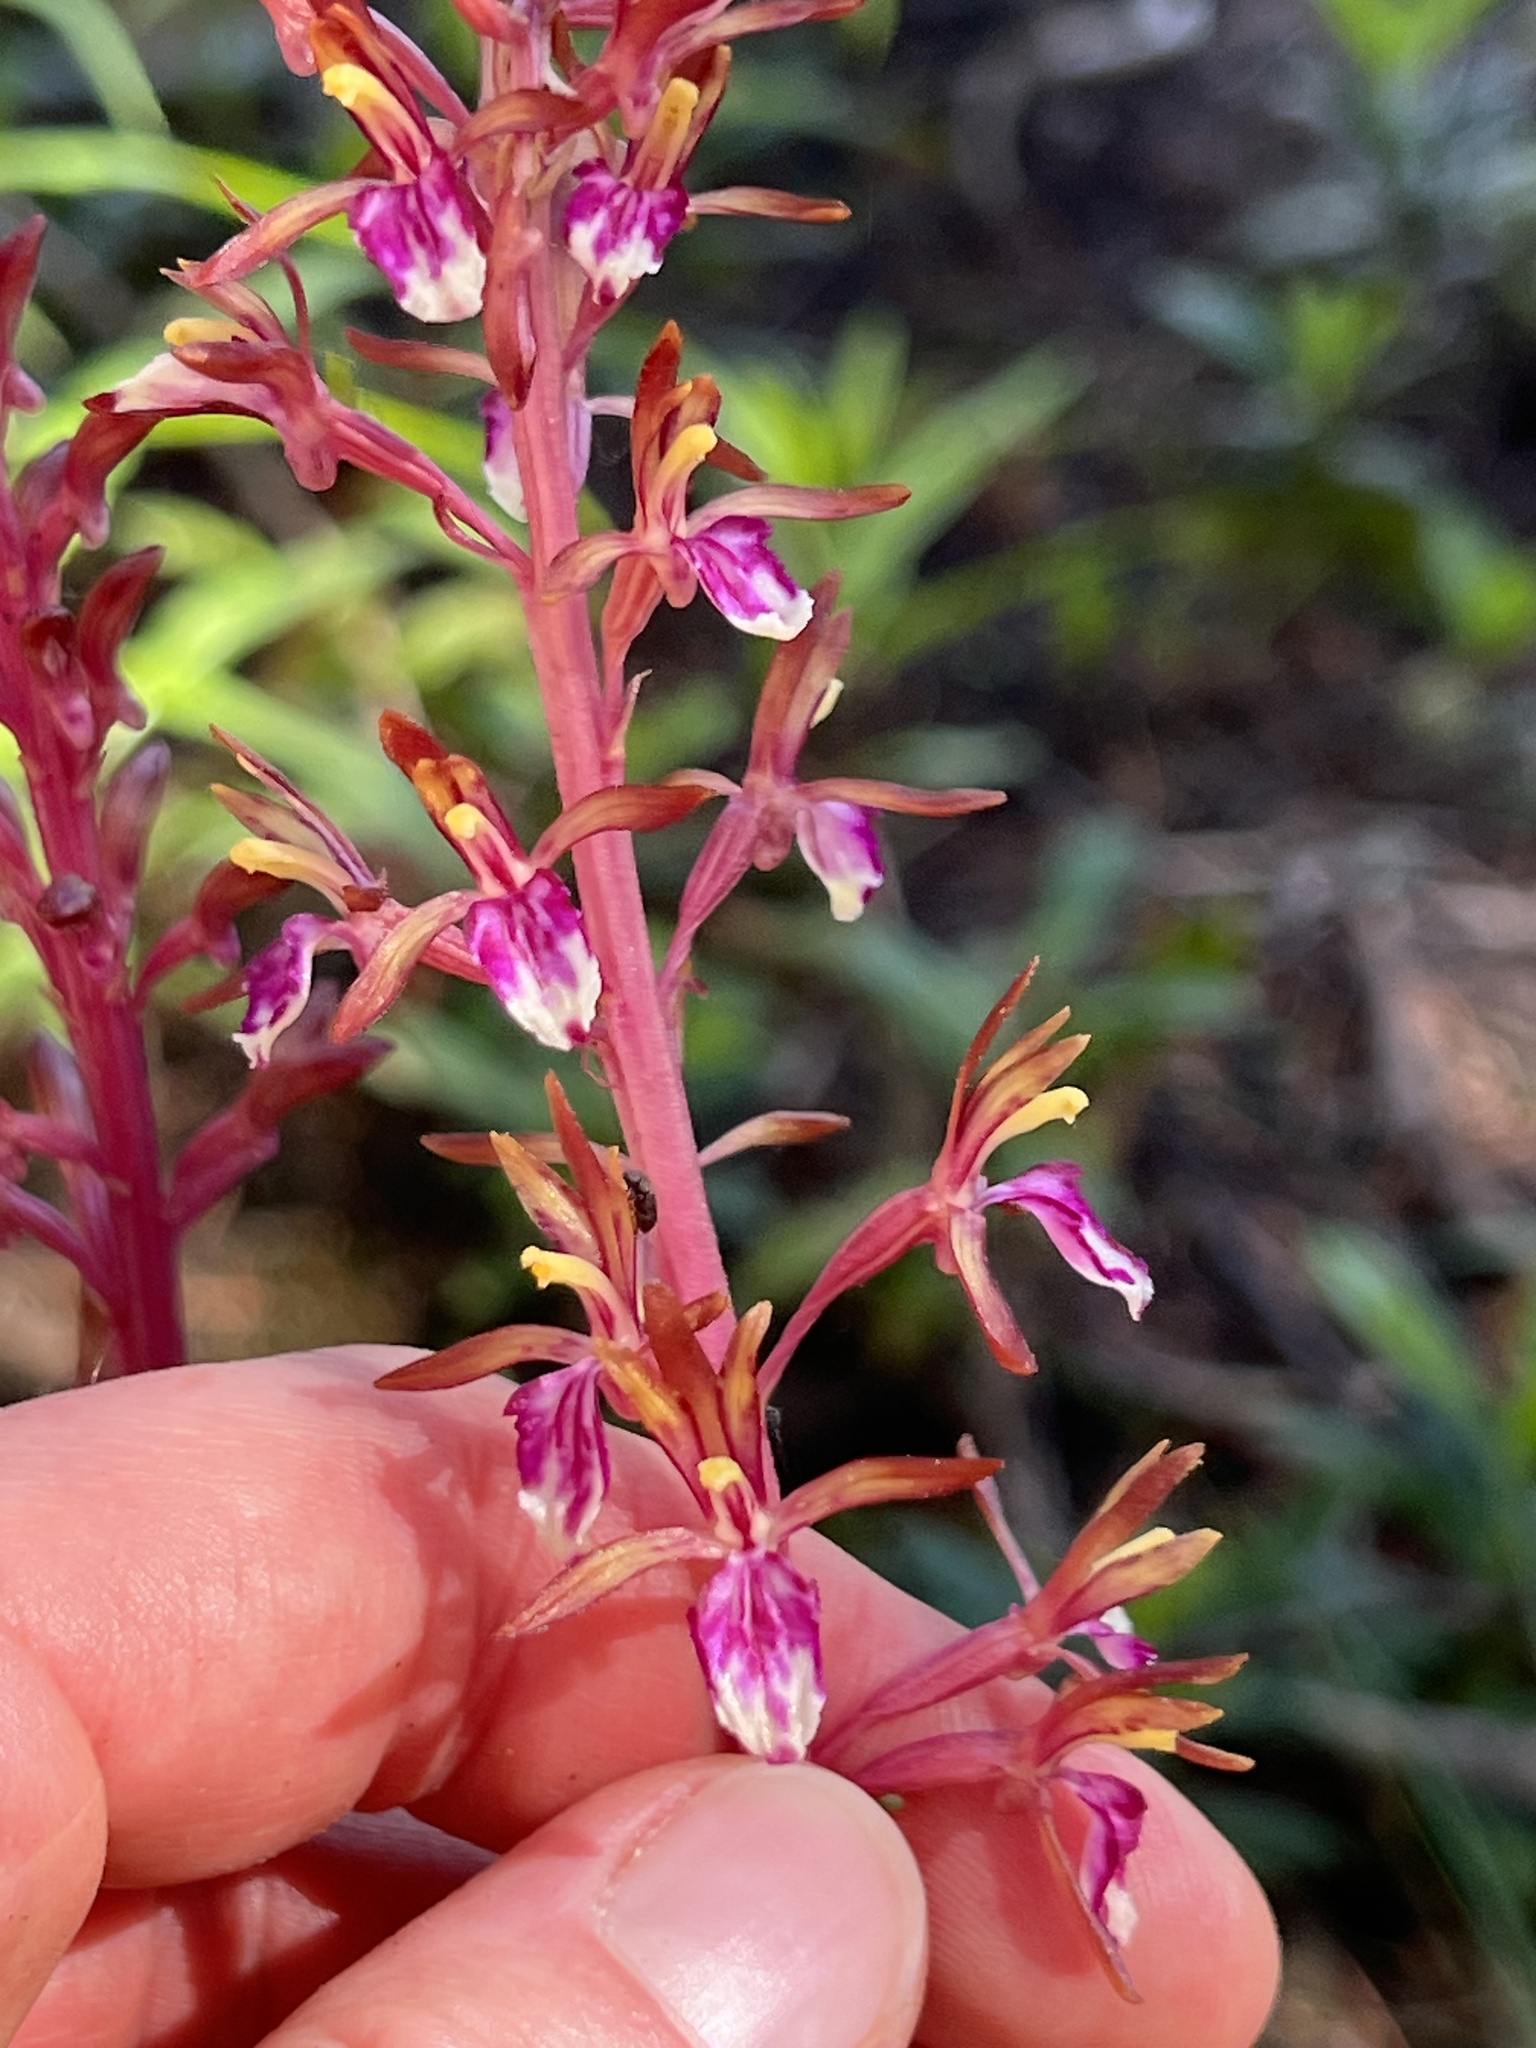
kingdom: Plantae
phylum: Tracheophyta
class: Liliopsida
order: Asparagales
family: Orchidaceae
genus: Corallorhiza
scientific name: Corallorhiza mertensiana
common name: Pacific coralroot
